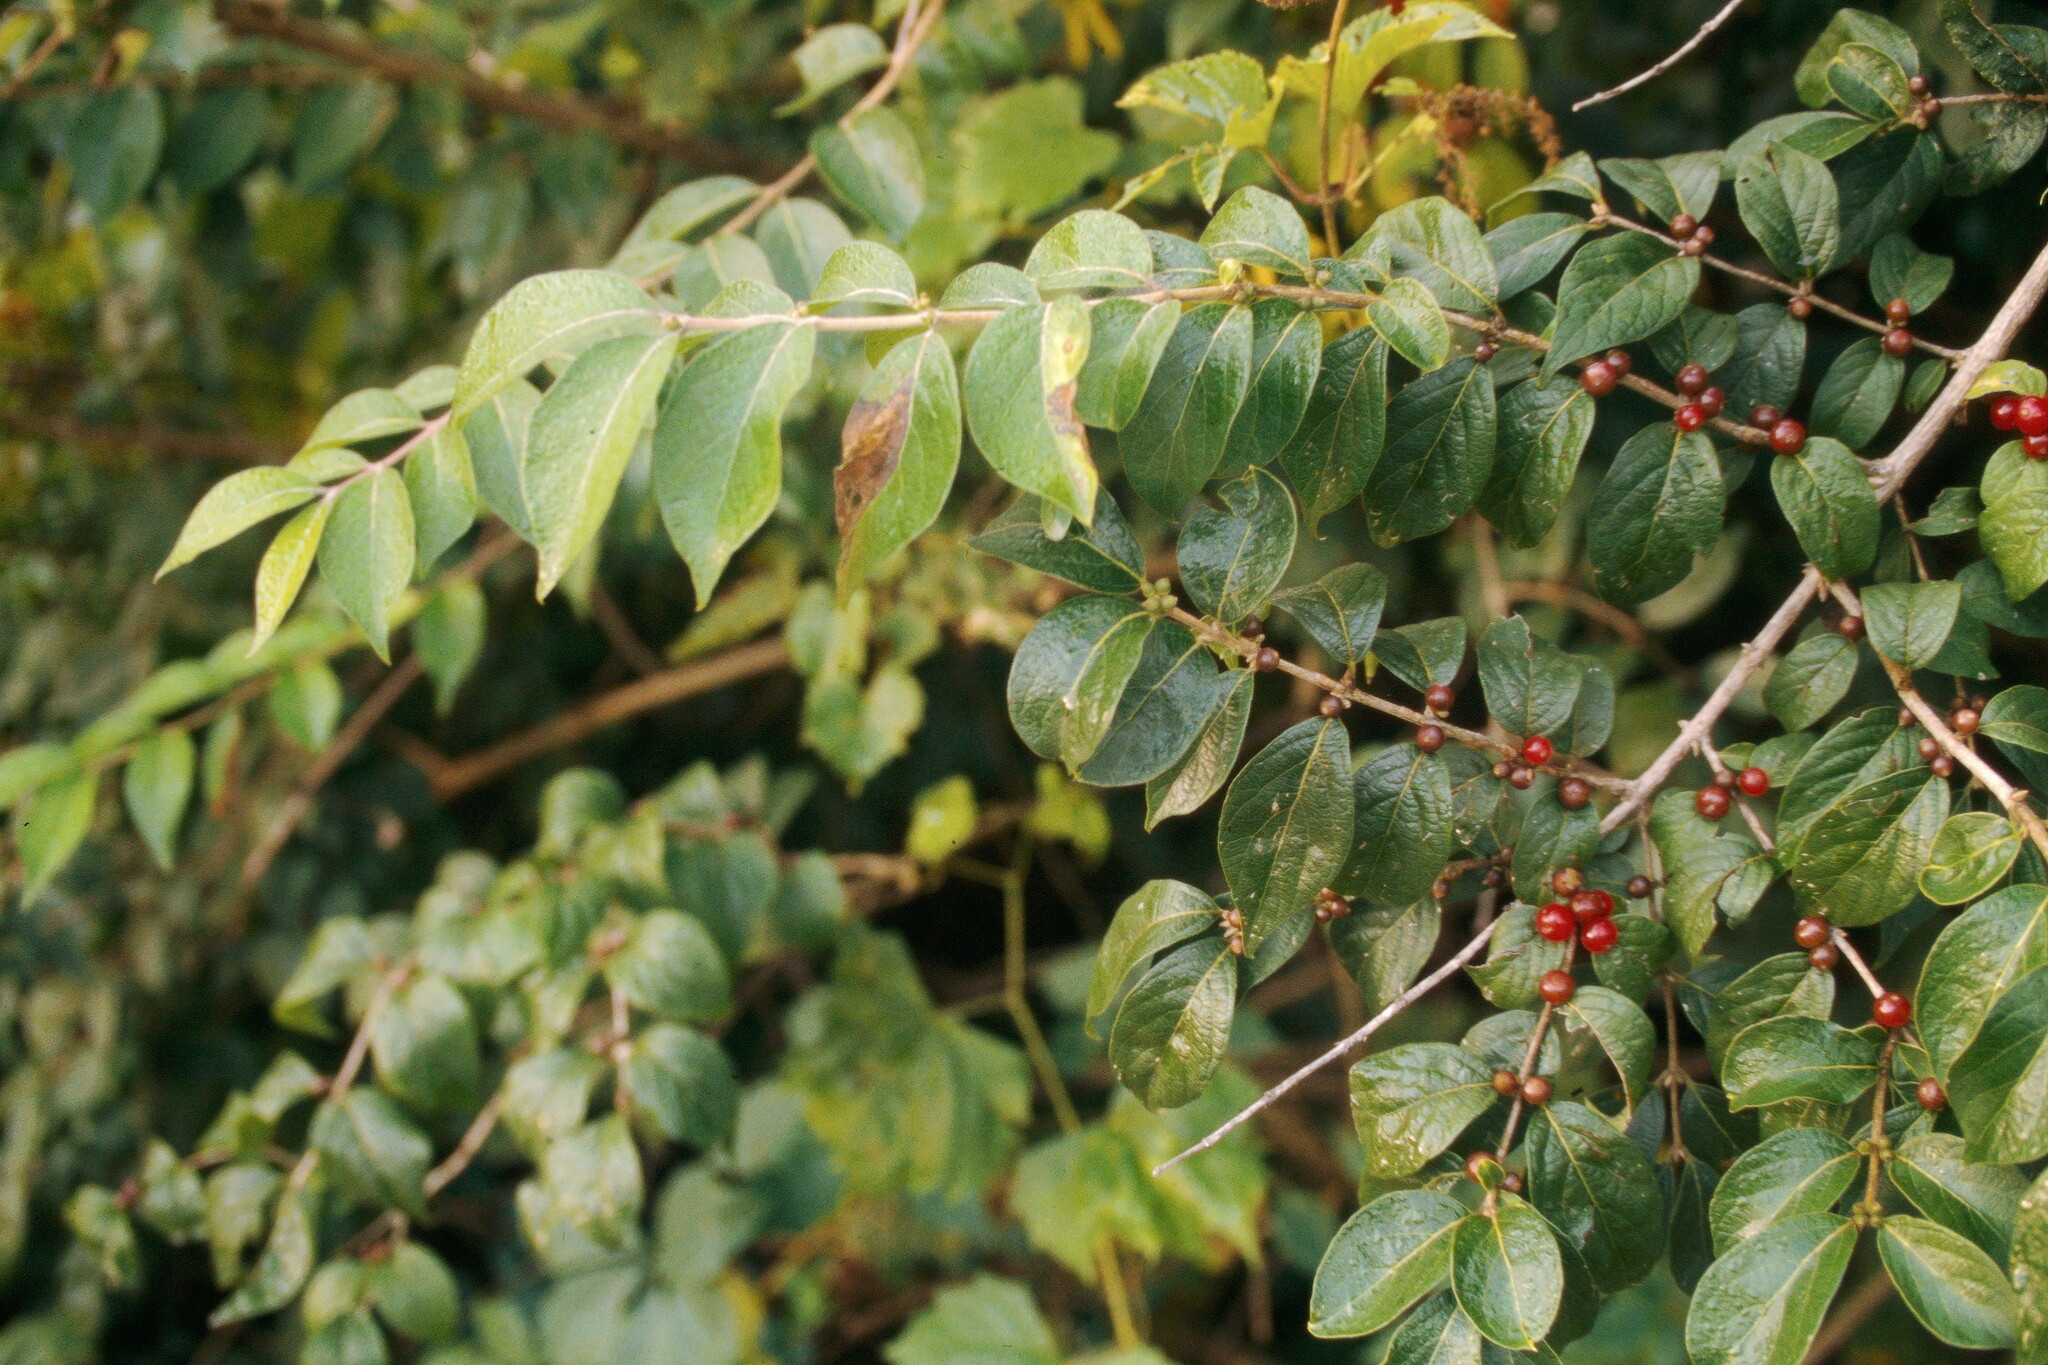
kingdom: Plantae
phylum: Tracheophyta
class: Magnoliopsida
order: Dipsacales
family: Caprifoliaceae
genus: Lonicera
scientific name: Lonicera maackii
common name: Amur honeysuckle
